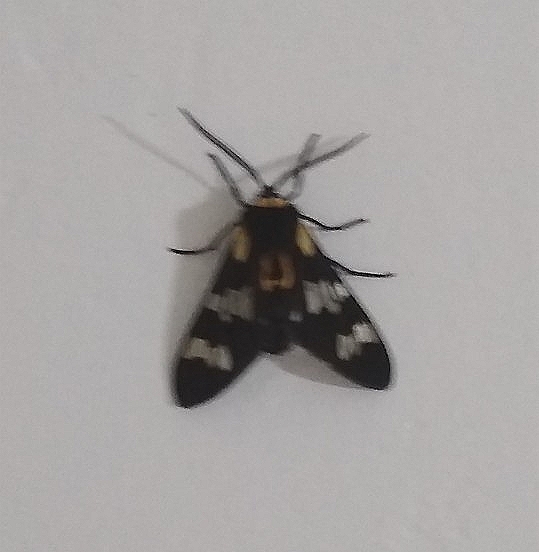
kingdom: Animalia
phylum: Arthropoda
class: Insecta
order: Lepidoptera
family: Erebidae
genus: Eurata
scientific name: Eurata
